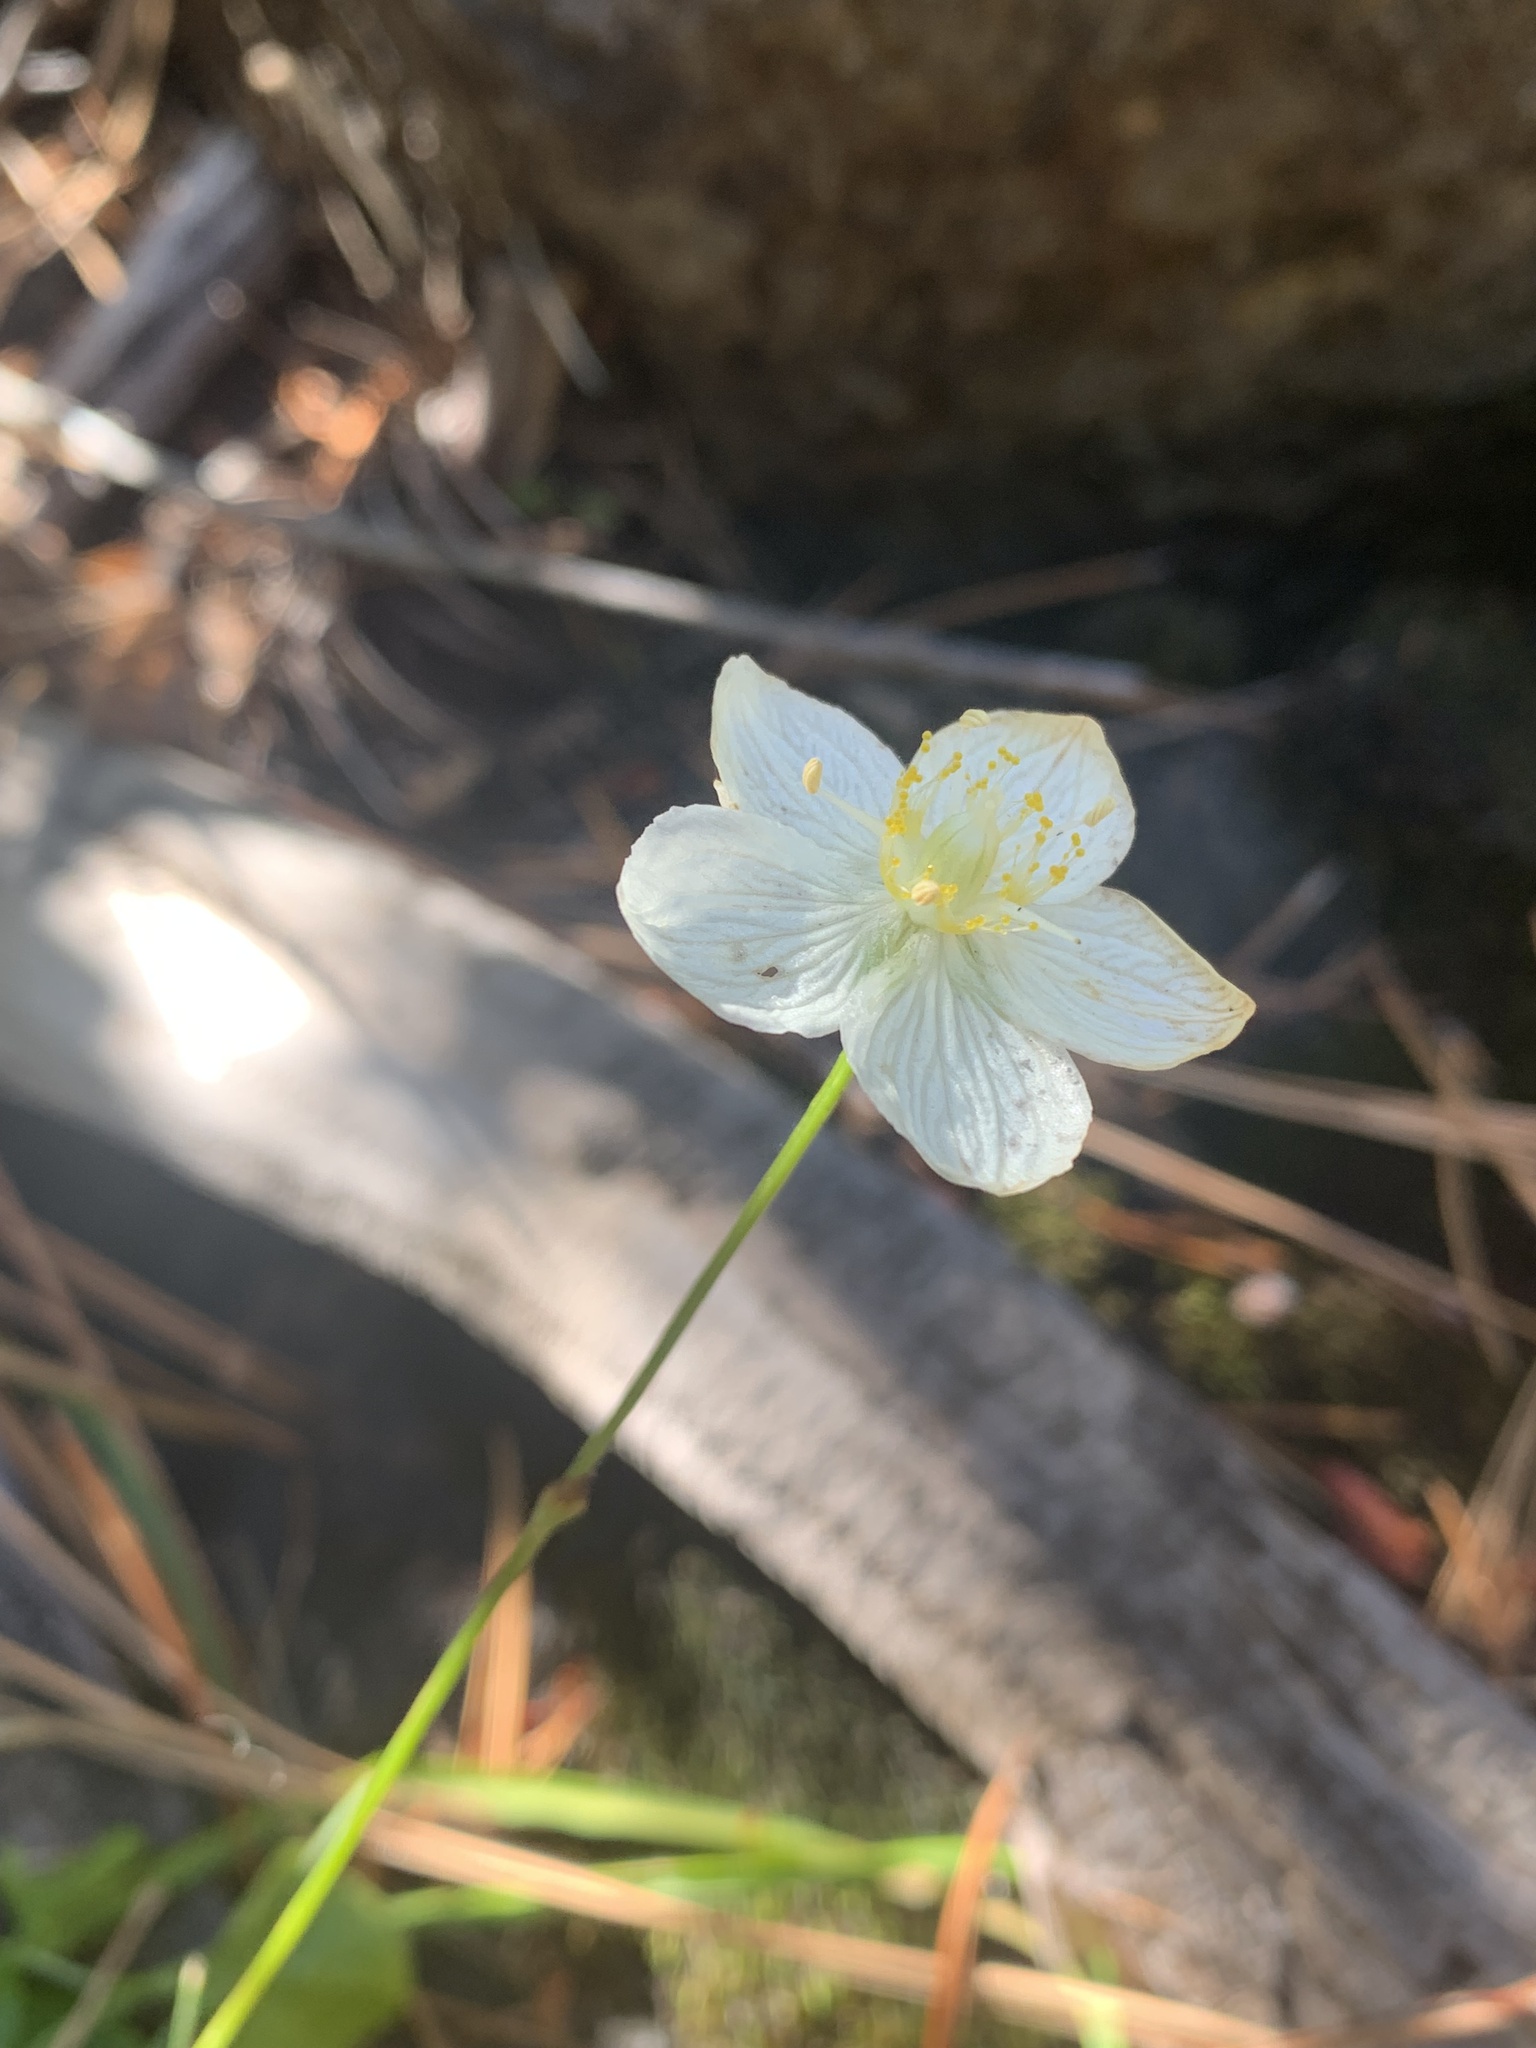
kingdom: Plantae
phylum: Tracheophyta
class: Magnoliopsida
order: Celastrales
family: Parnassiaceae
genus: Parnassia
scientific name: Parnassia palustris
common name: Grass-of-parnassus
